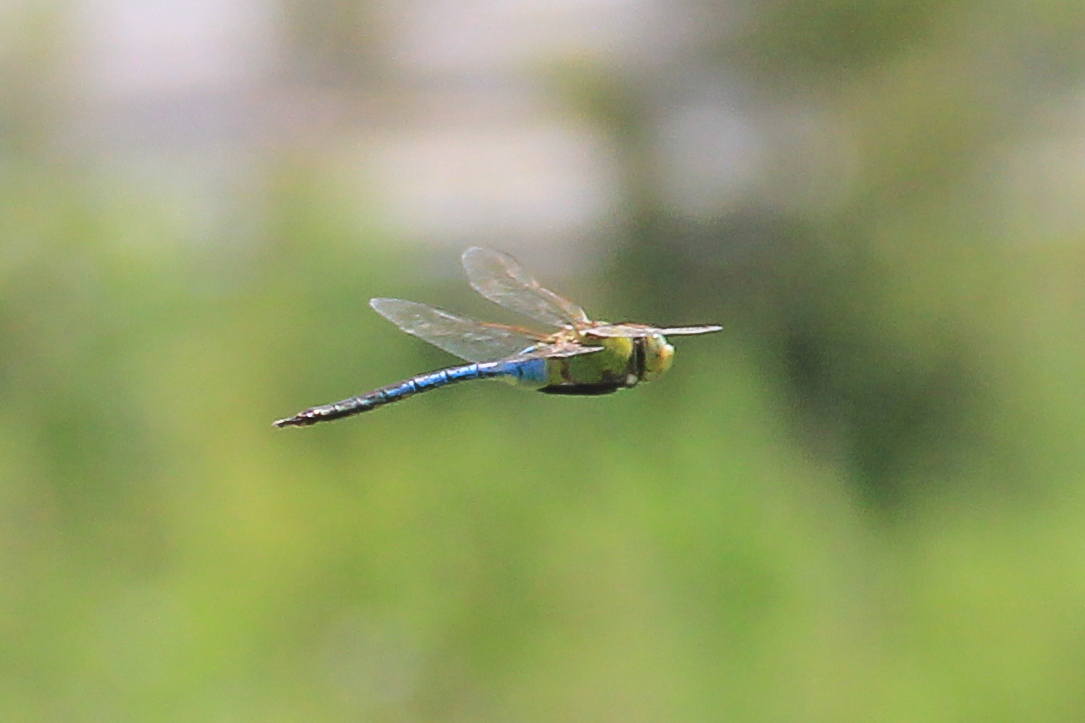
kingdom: Animalia
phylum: Arthropoda
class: Insecta
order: Odonata
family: Aeshnidae
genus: Anax
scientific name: Anax junius
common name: Common green darner
